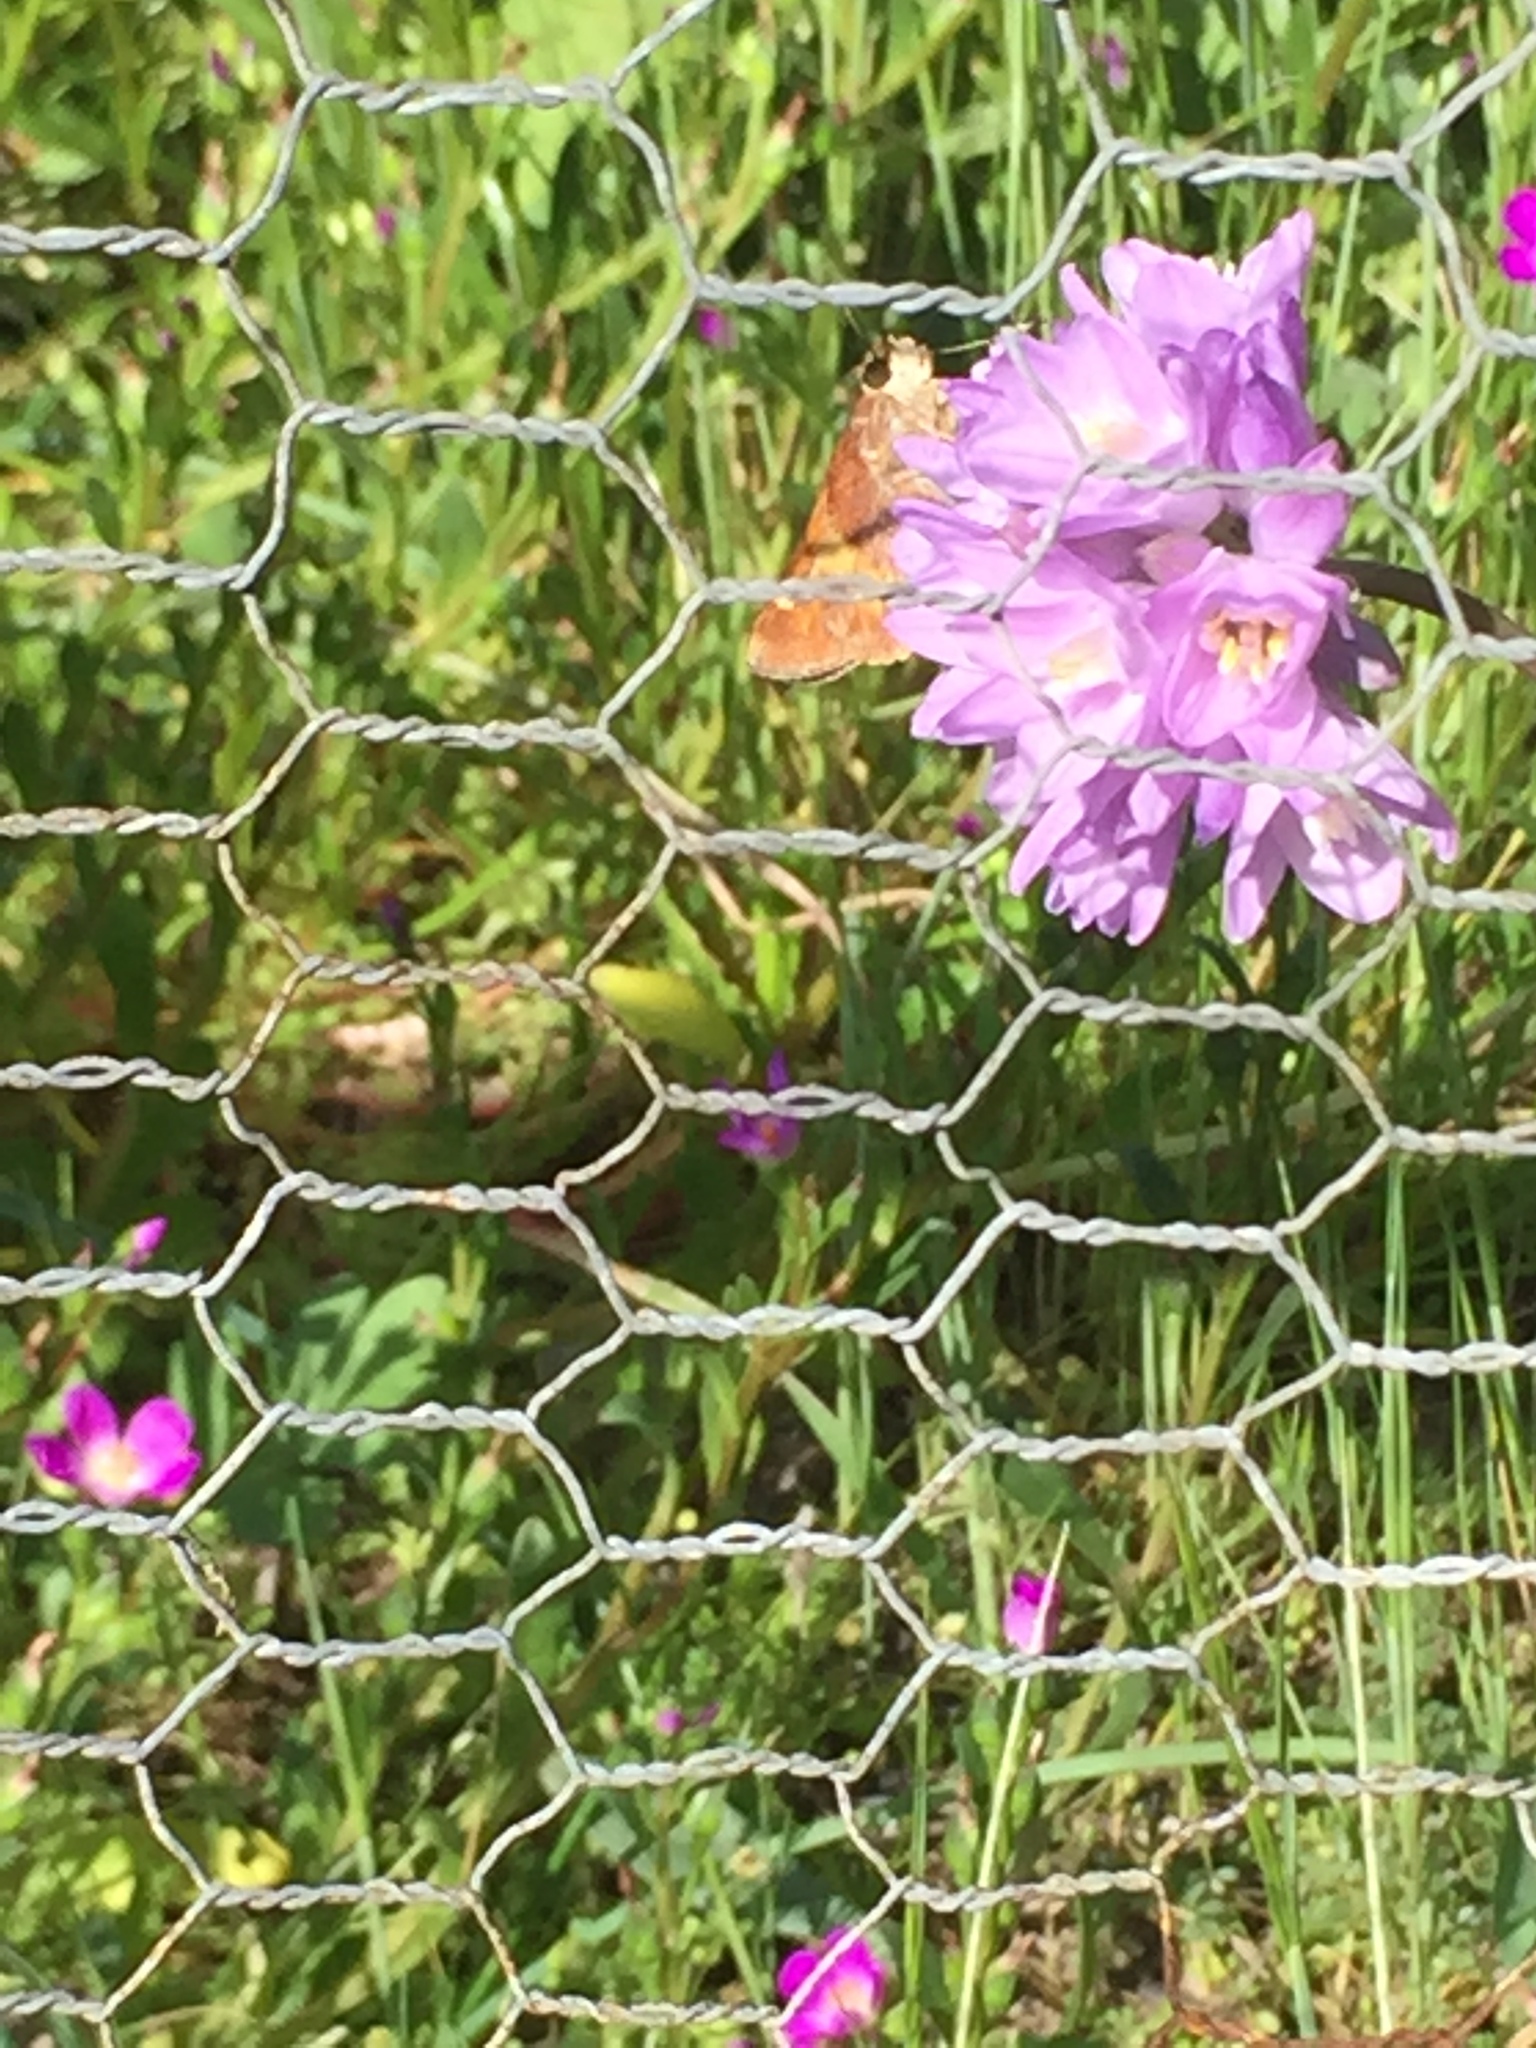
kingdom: Animalia
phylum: Arthropoda
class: Insecta
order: Lepidoptera
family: Hesperiidae
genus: Lon
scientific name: Lon melane
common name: Umber skipper
